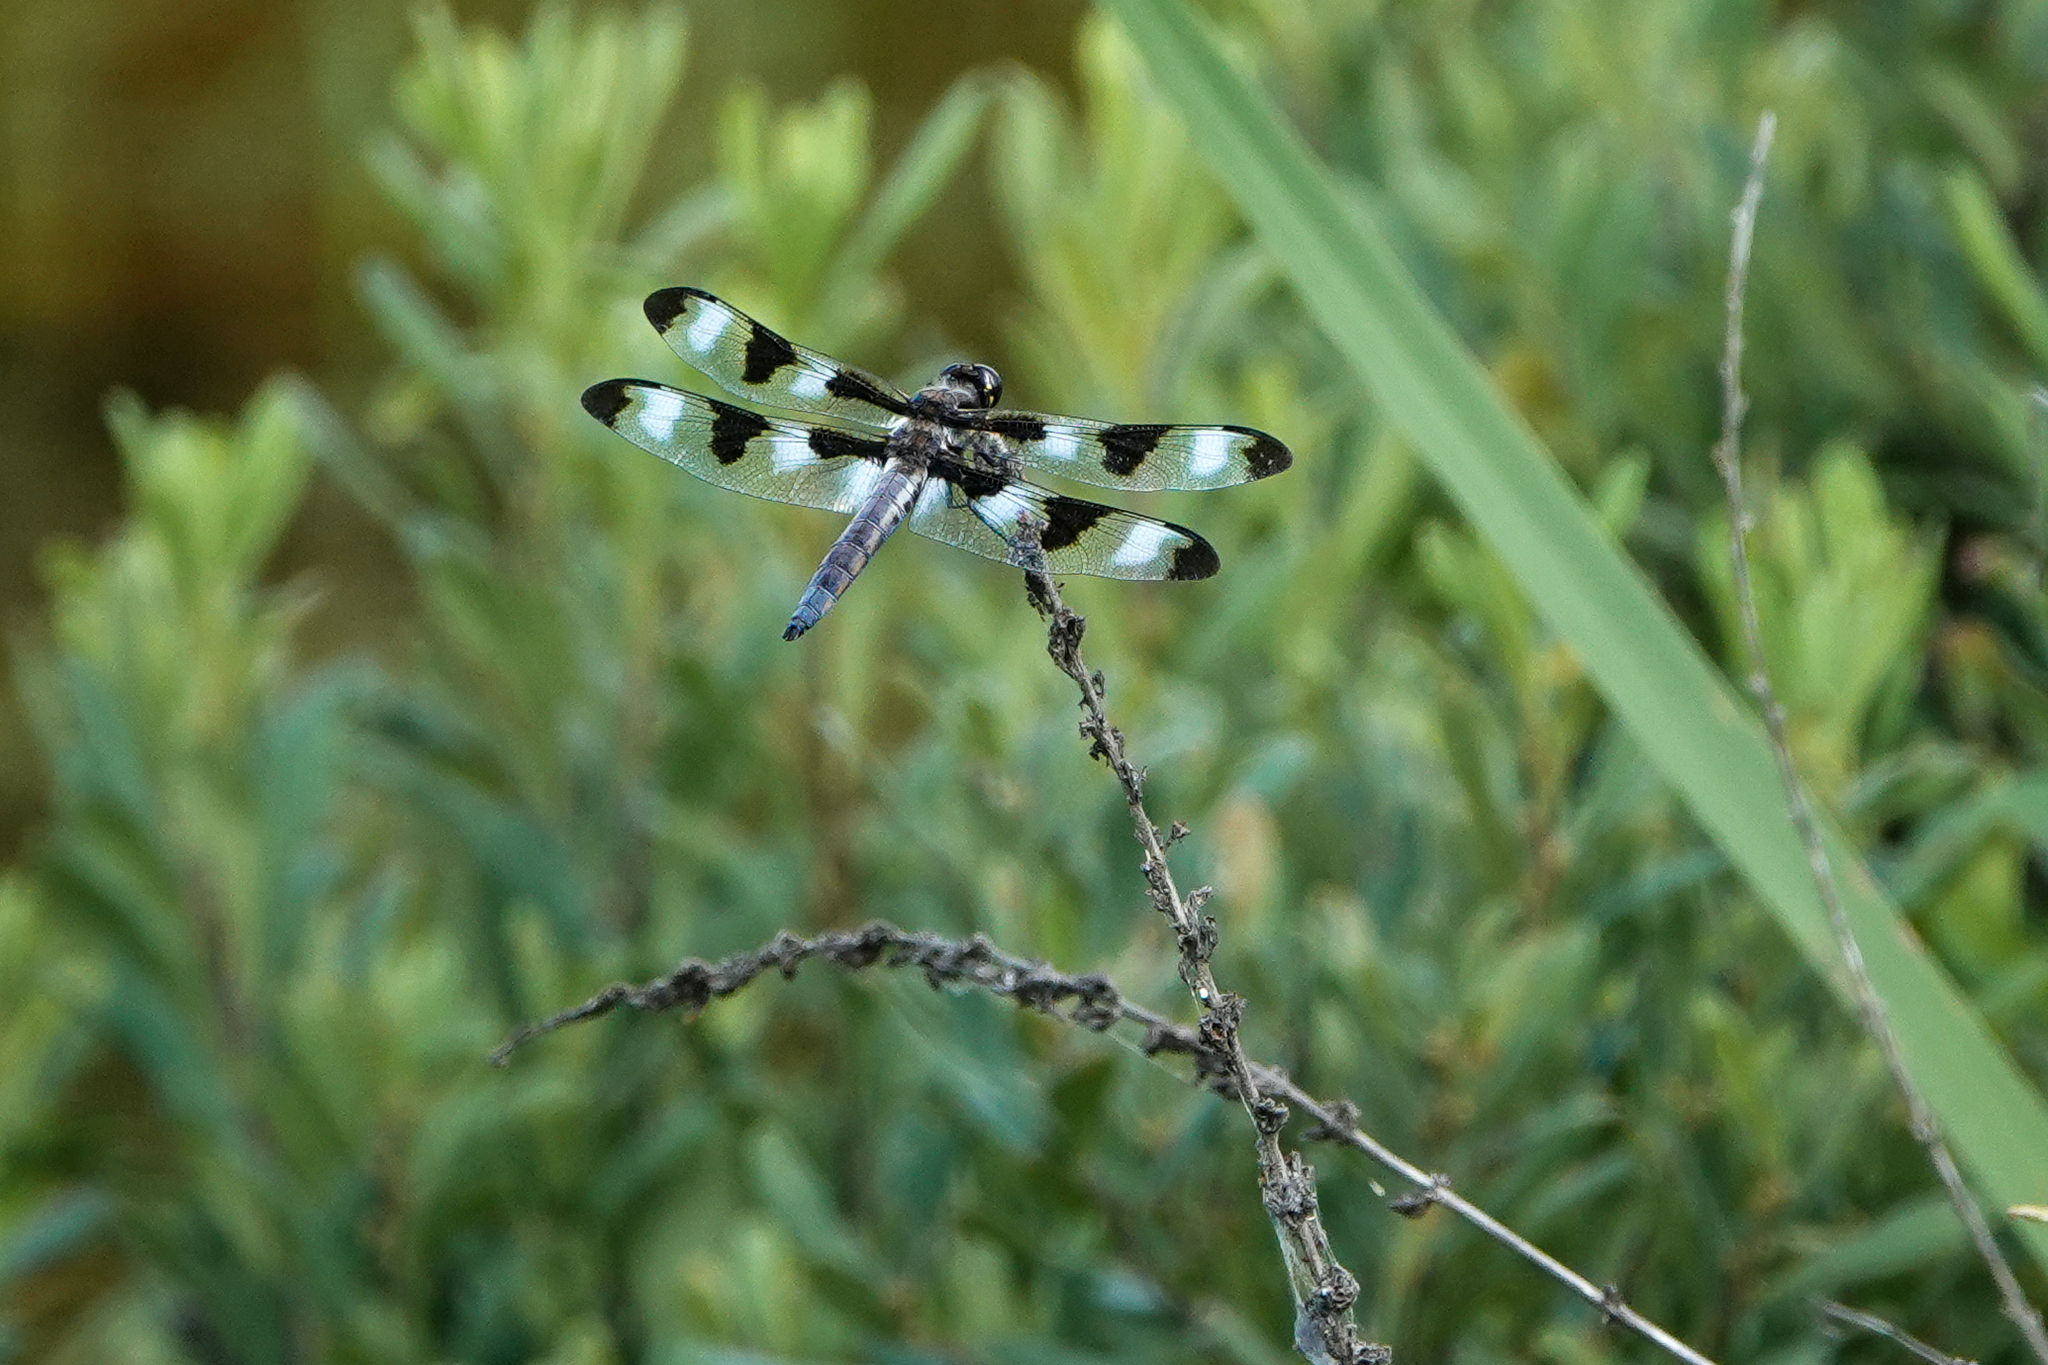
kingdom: Animalia
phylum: Arthropoda
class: Insecta
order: Odonata
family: Libellulidae
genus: Libellula
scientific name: Libellula pulchella
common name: Twelve-spotted skimmer
